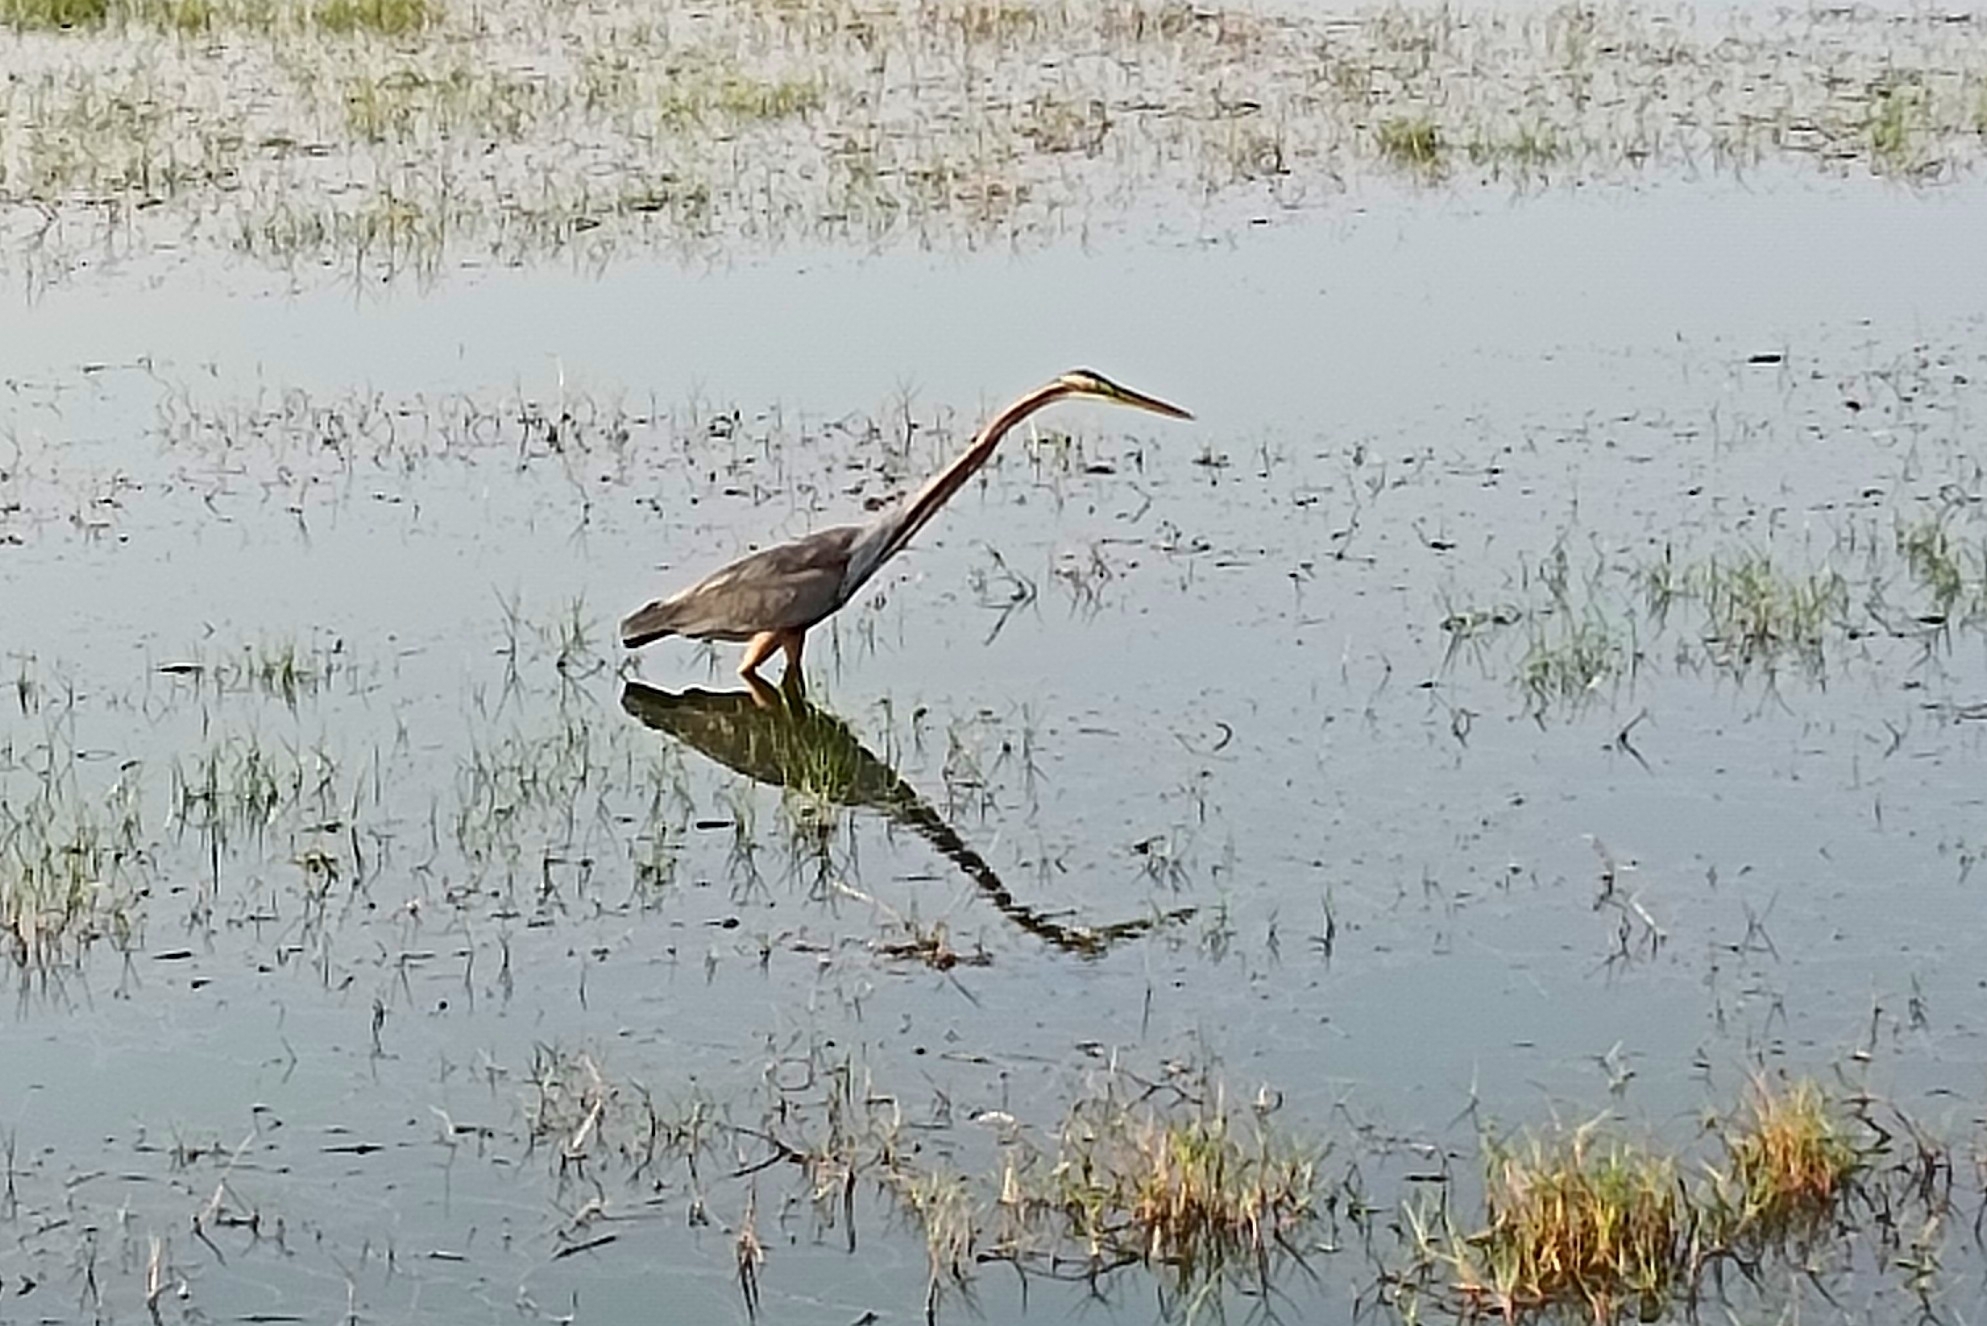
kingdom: Animalia
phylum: Chordata
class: Aves
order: Pelecaniformes
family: Ardeidae
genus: Ardea
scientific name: Ardea purpurea
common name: Purple heron
